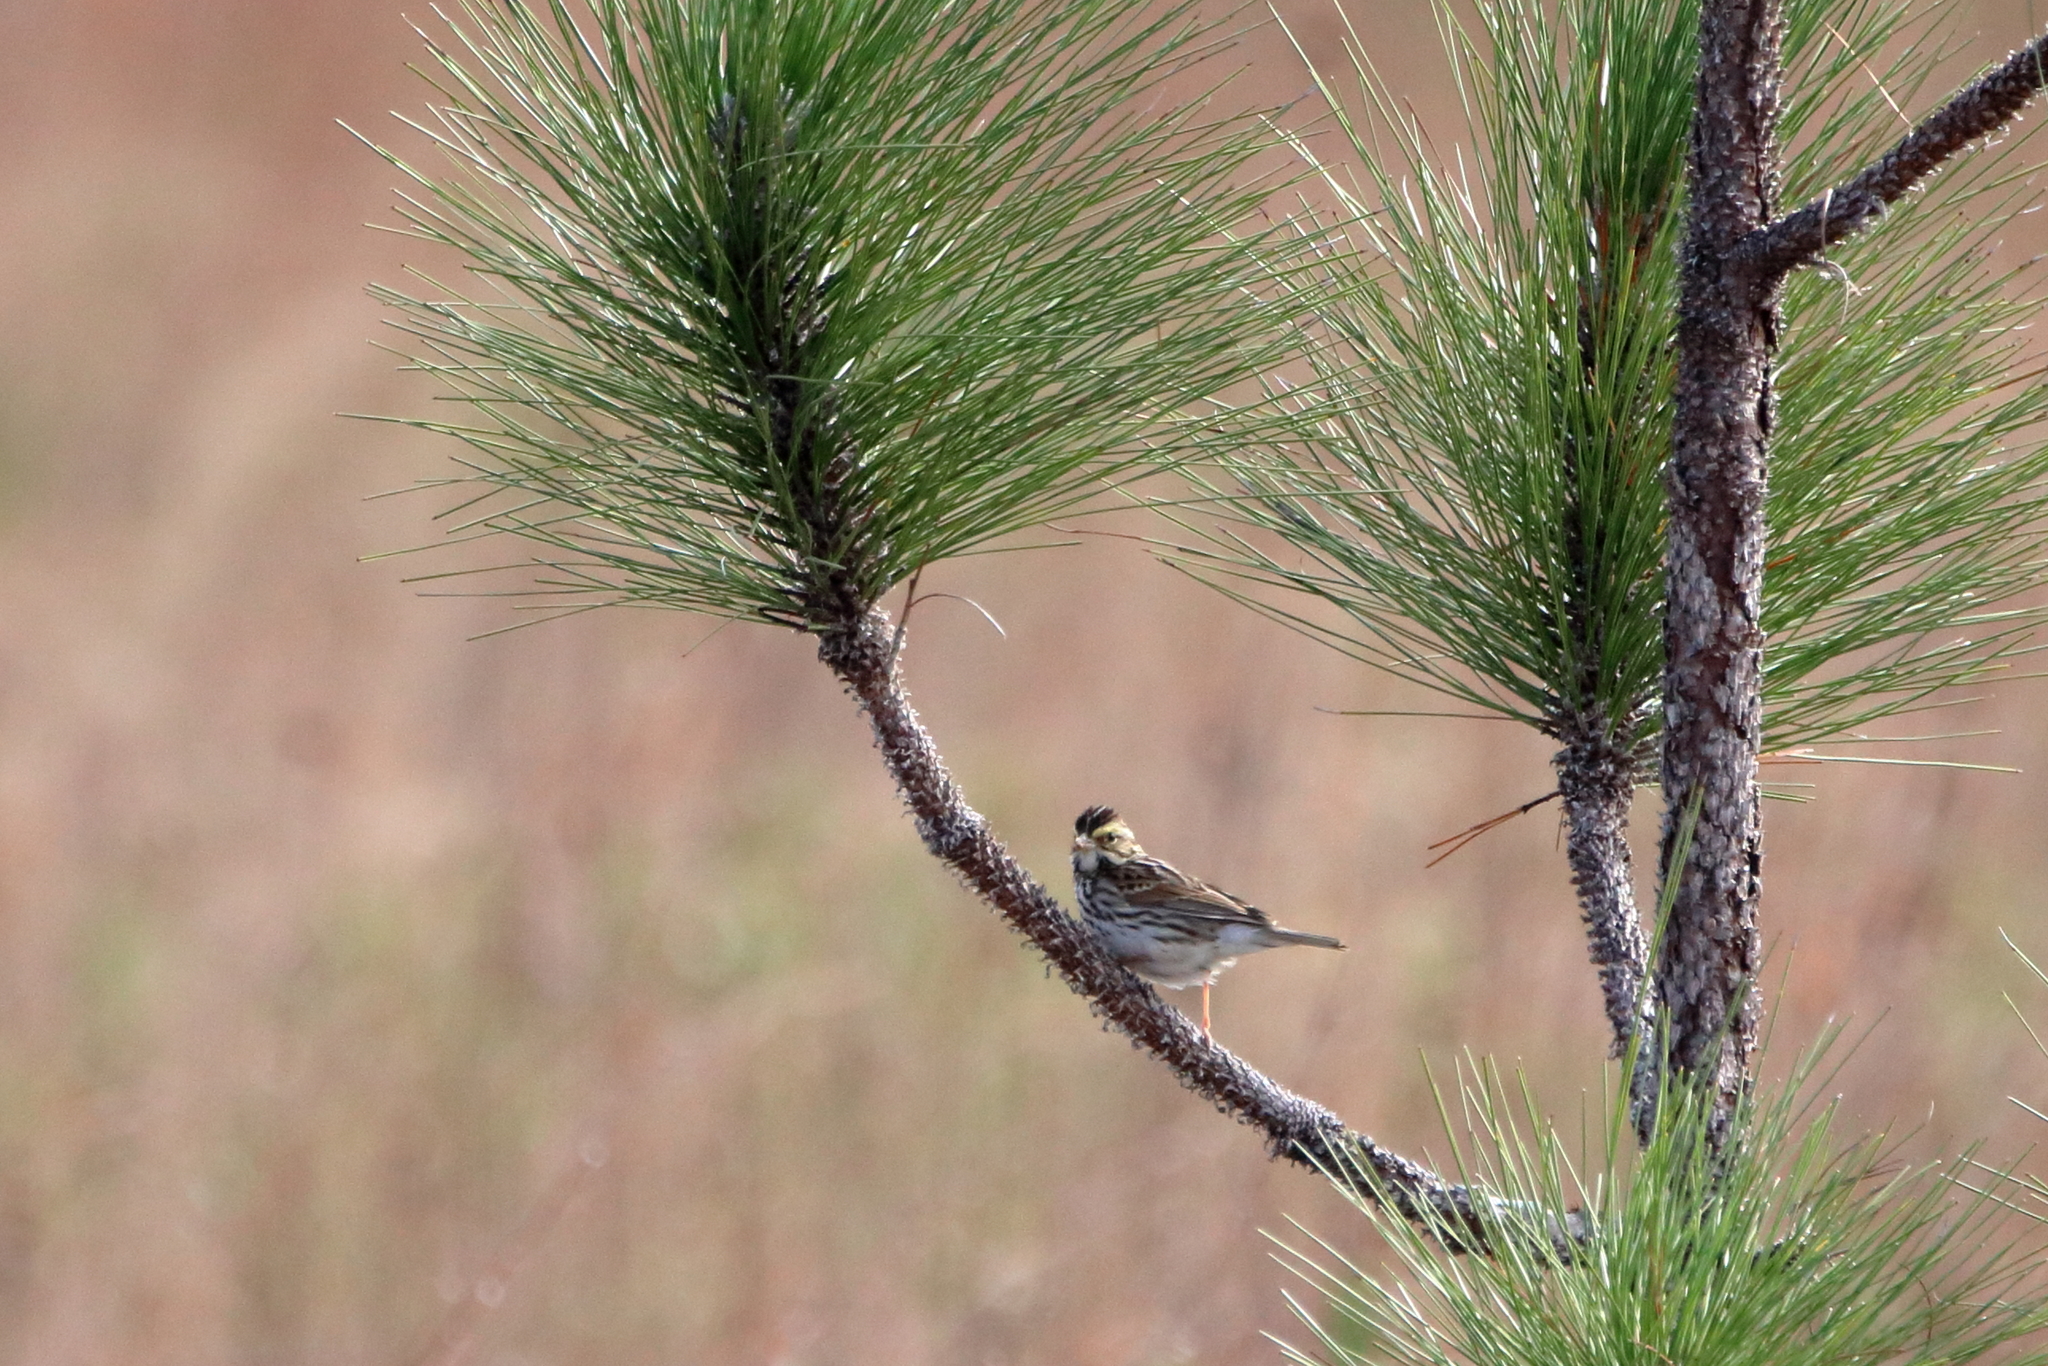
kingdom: Animalia
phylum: Chordata
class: Aves
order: Passeriformes
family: Passerellidae
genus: Passerculus
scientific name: Passerculus sandwichensis
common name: Savannah sparrow
